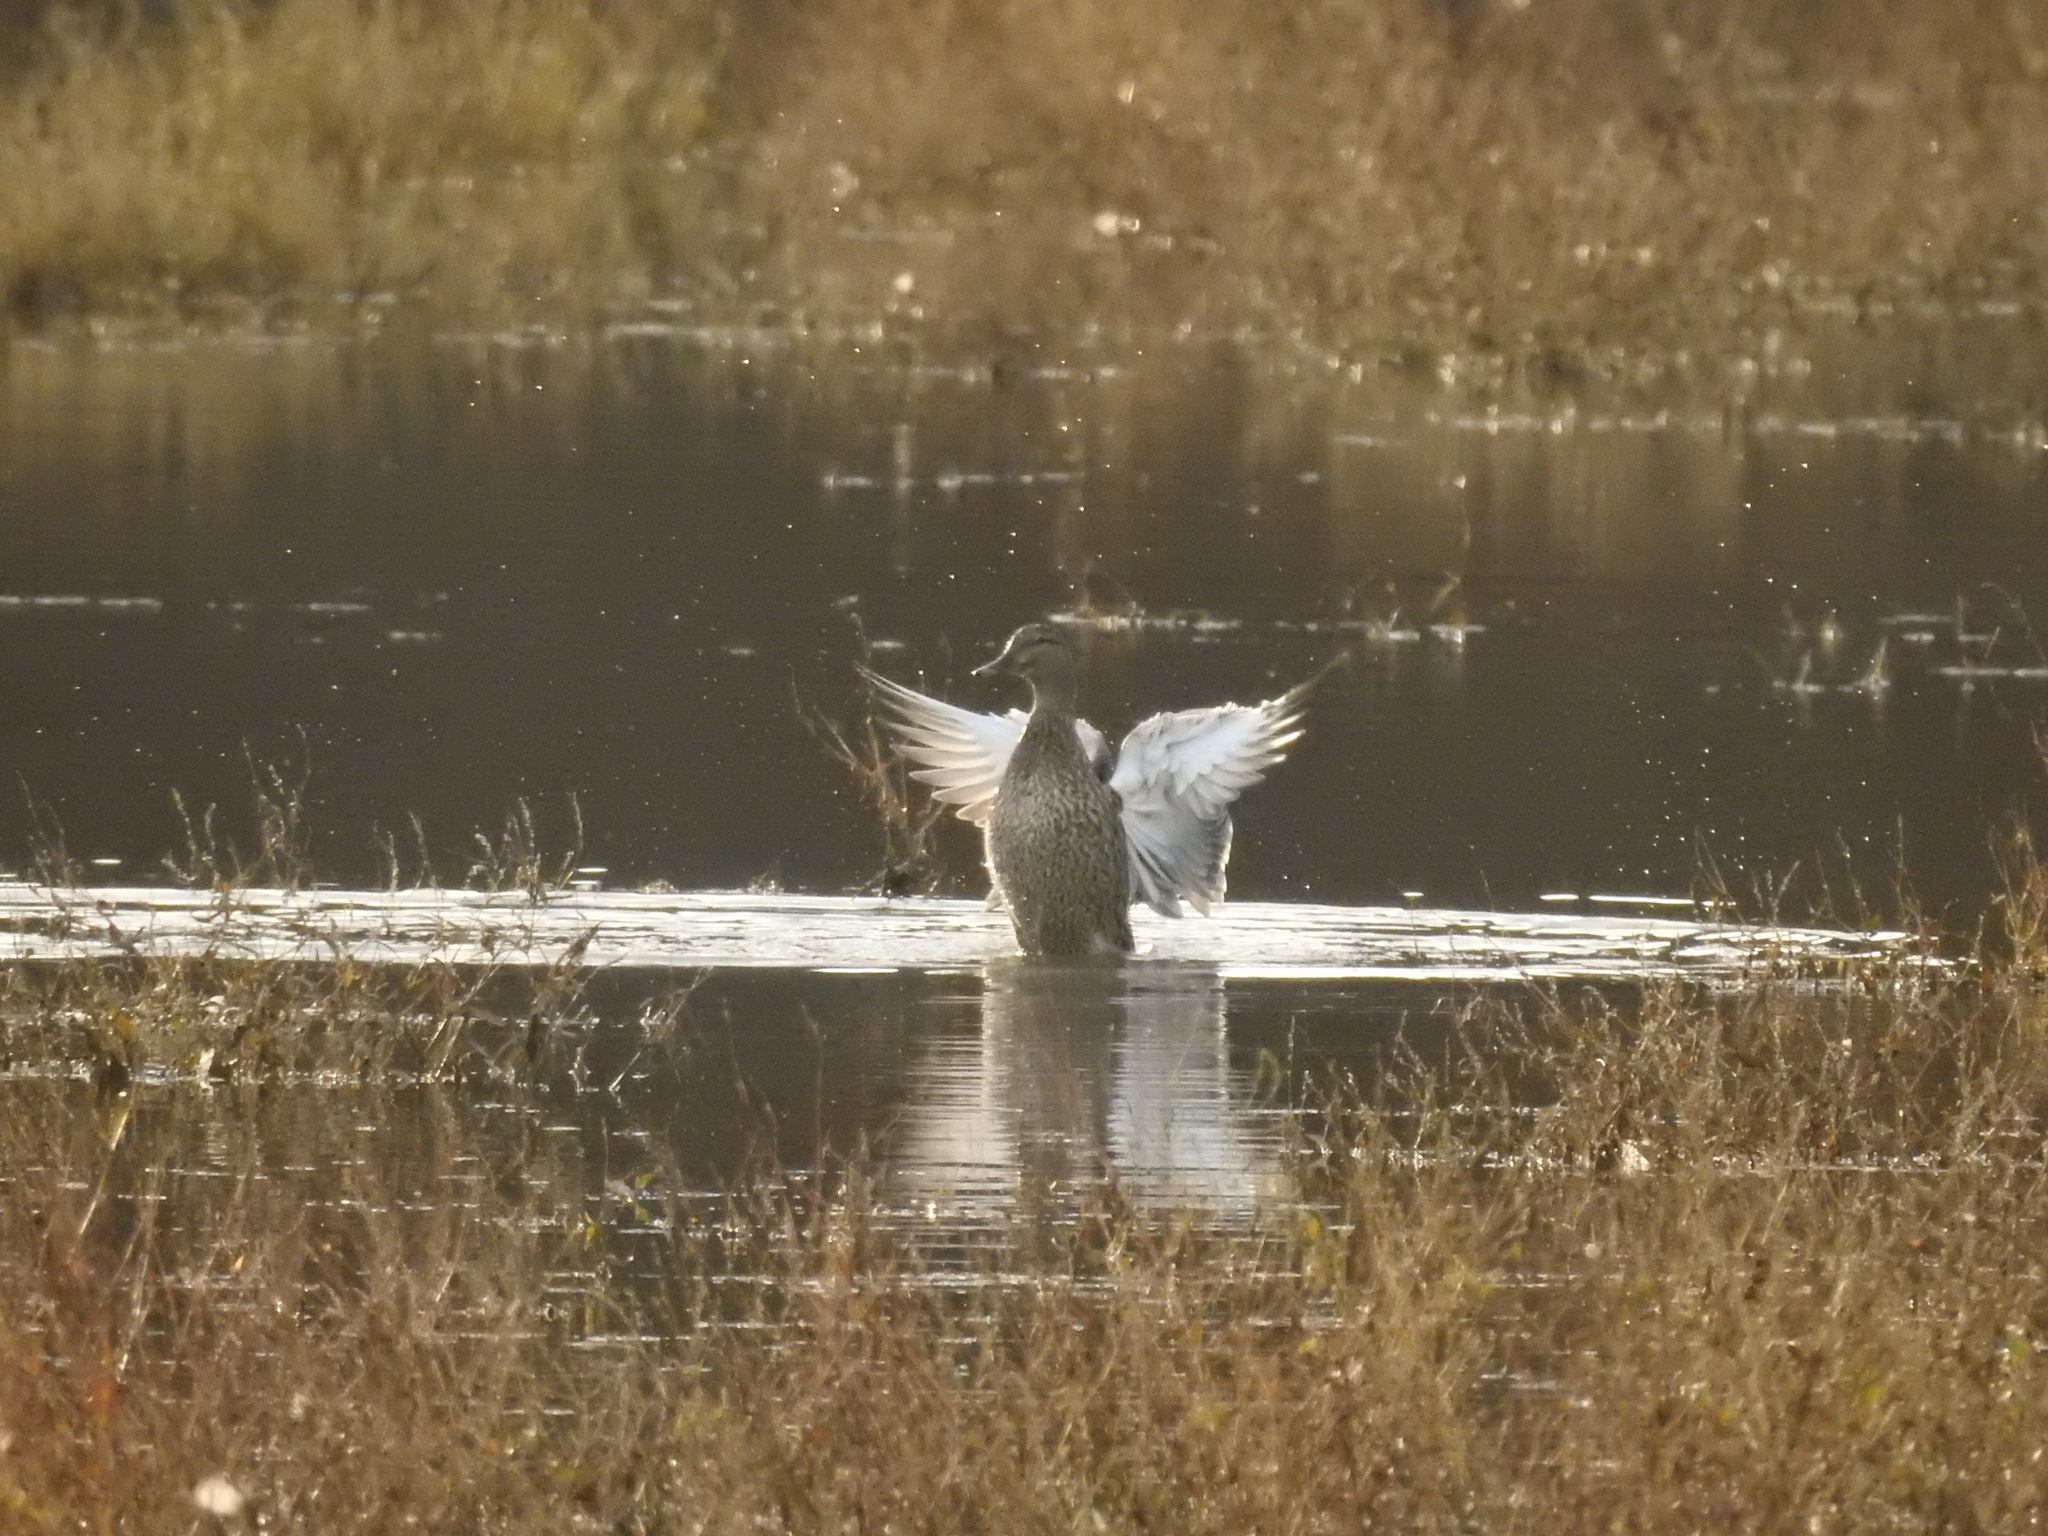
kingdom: Animalia
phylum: Chordata
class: Aves
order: Anseriformes
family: Anatidae
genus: Anas
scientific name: Anas platyrhynchos
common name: Mallard
